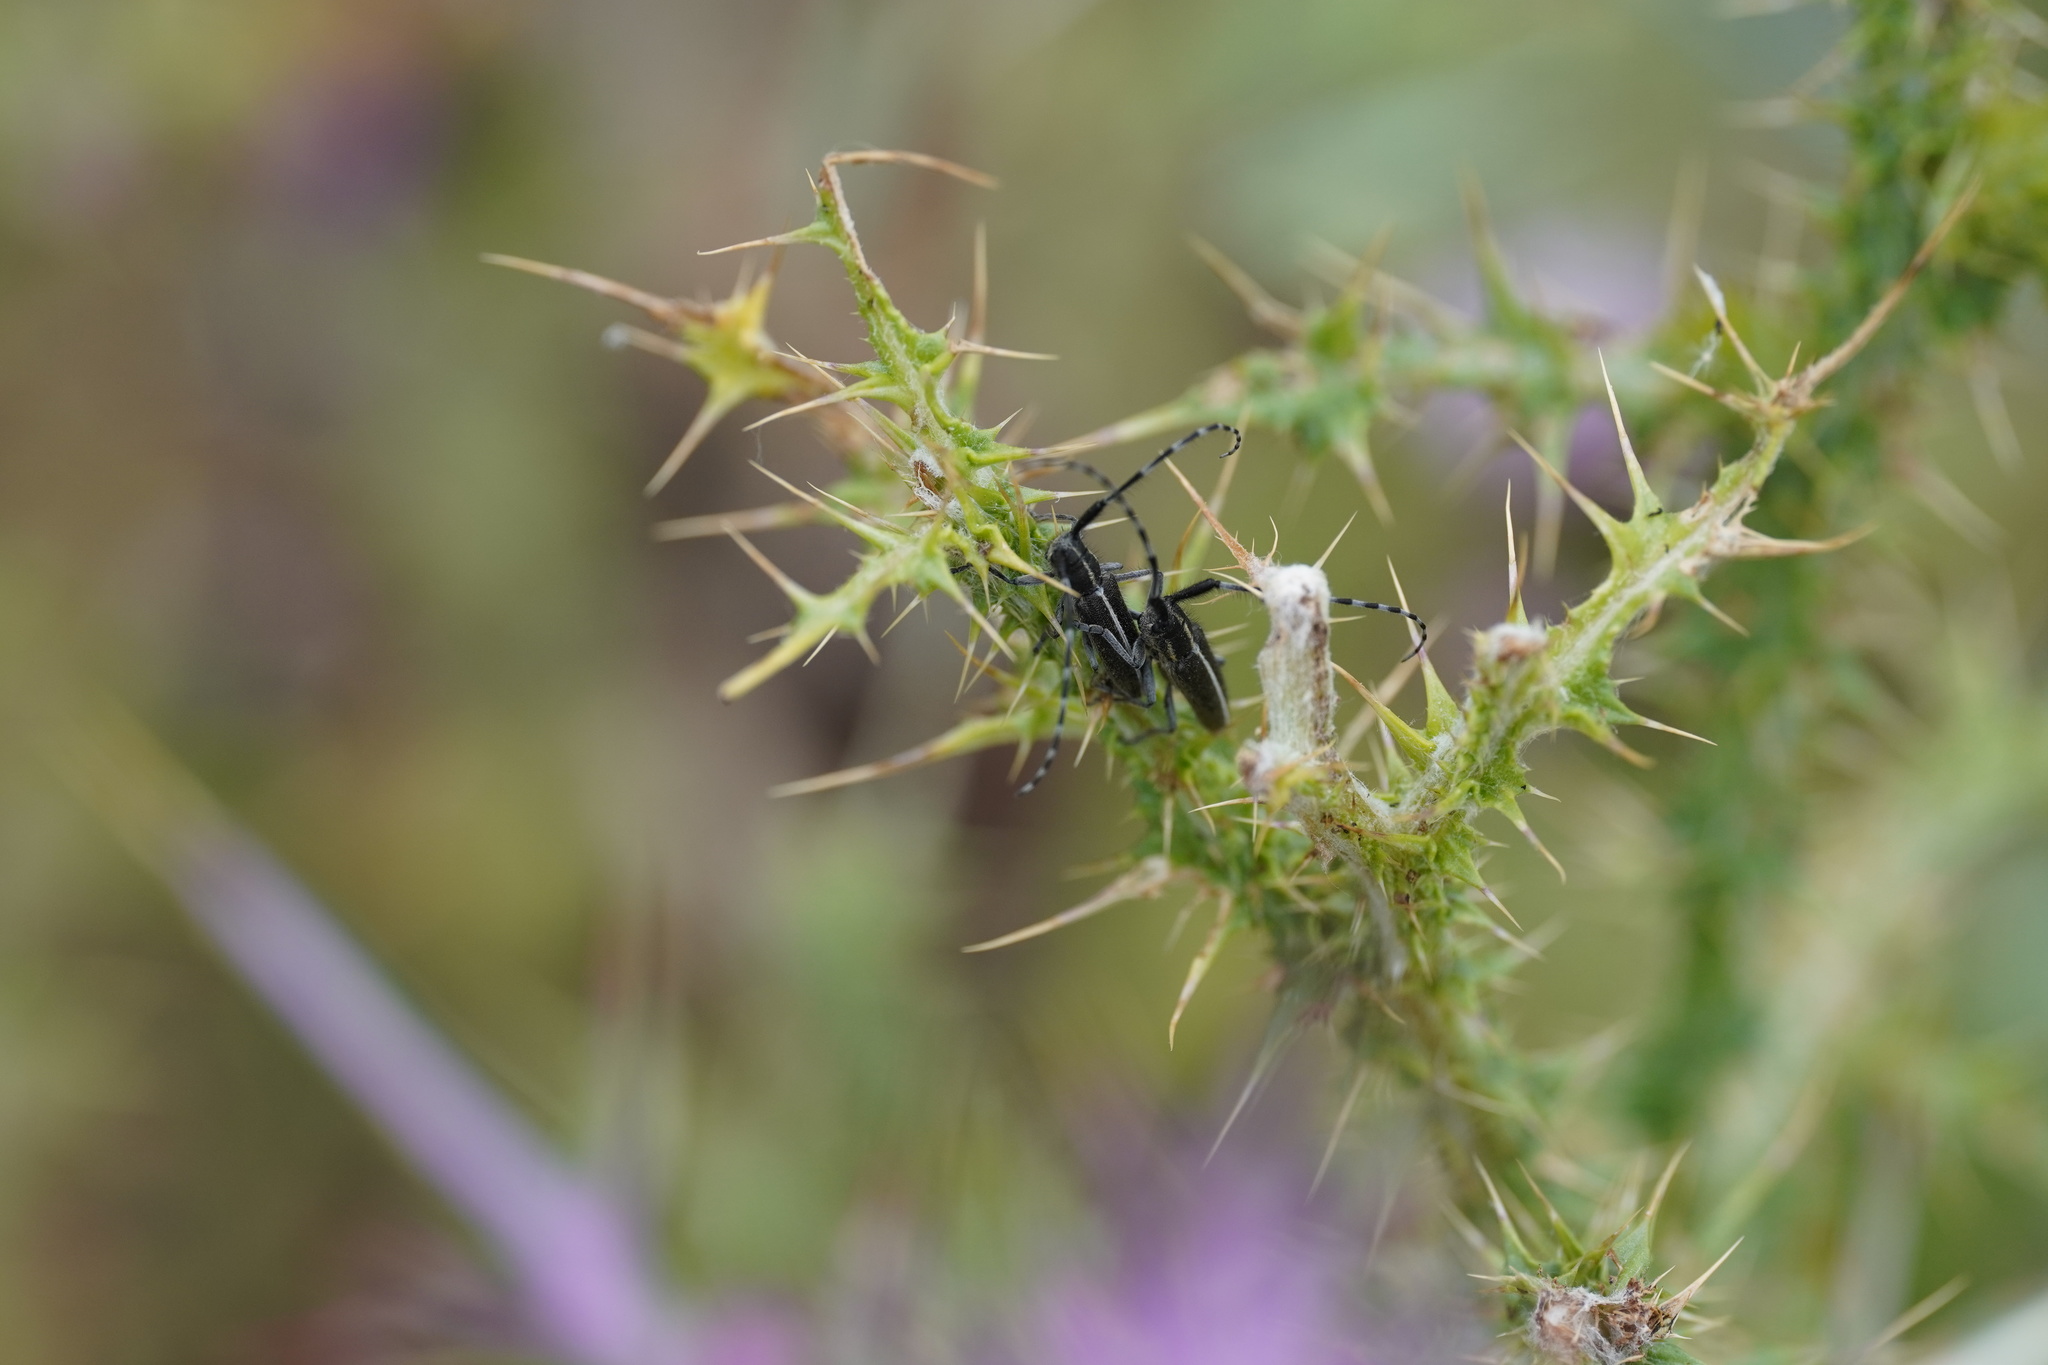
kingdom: Animalia
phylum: Arthropoda
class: Insecta
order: Coleoptera
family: Cerambycidae
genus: Agapanthia
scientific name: Agapanthia suturalis
